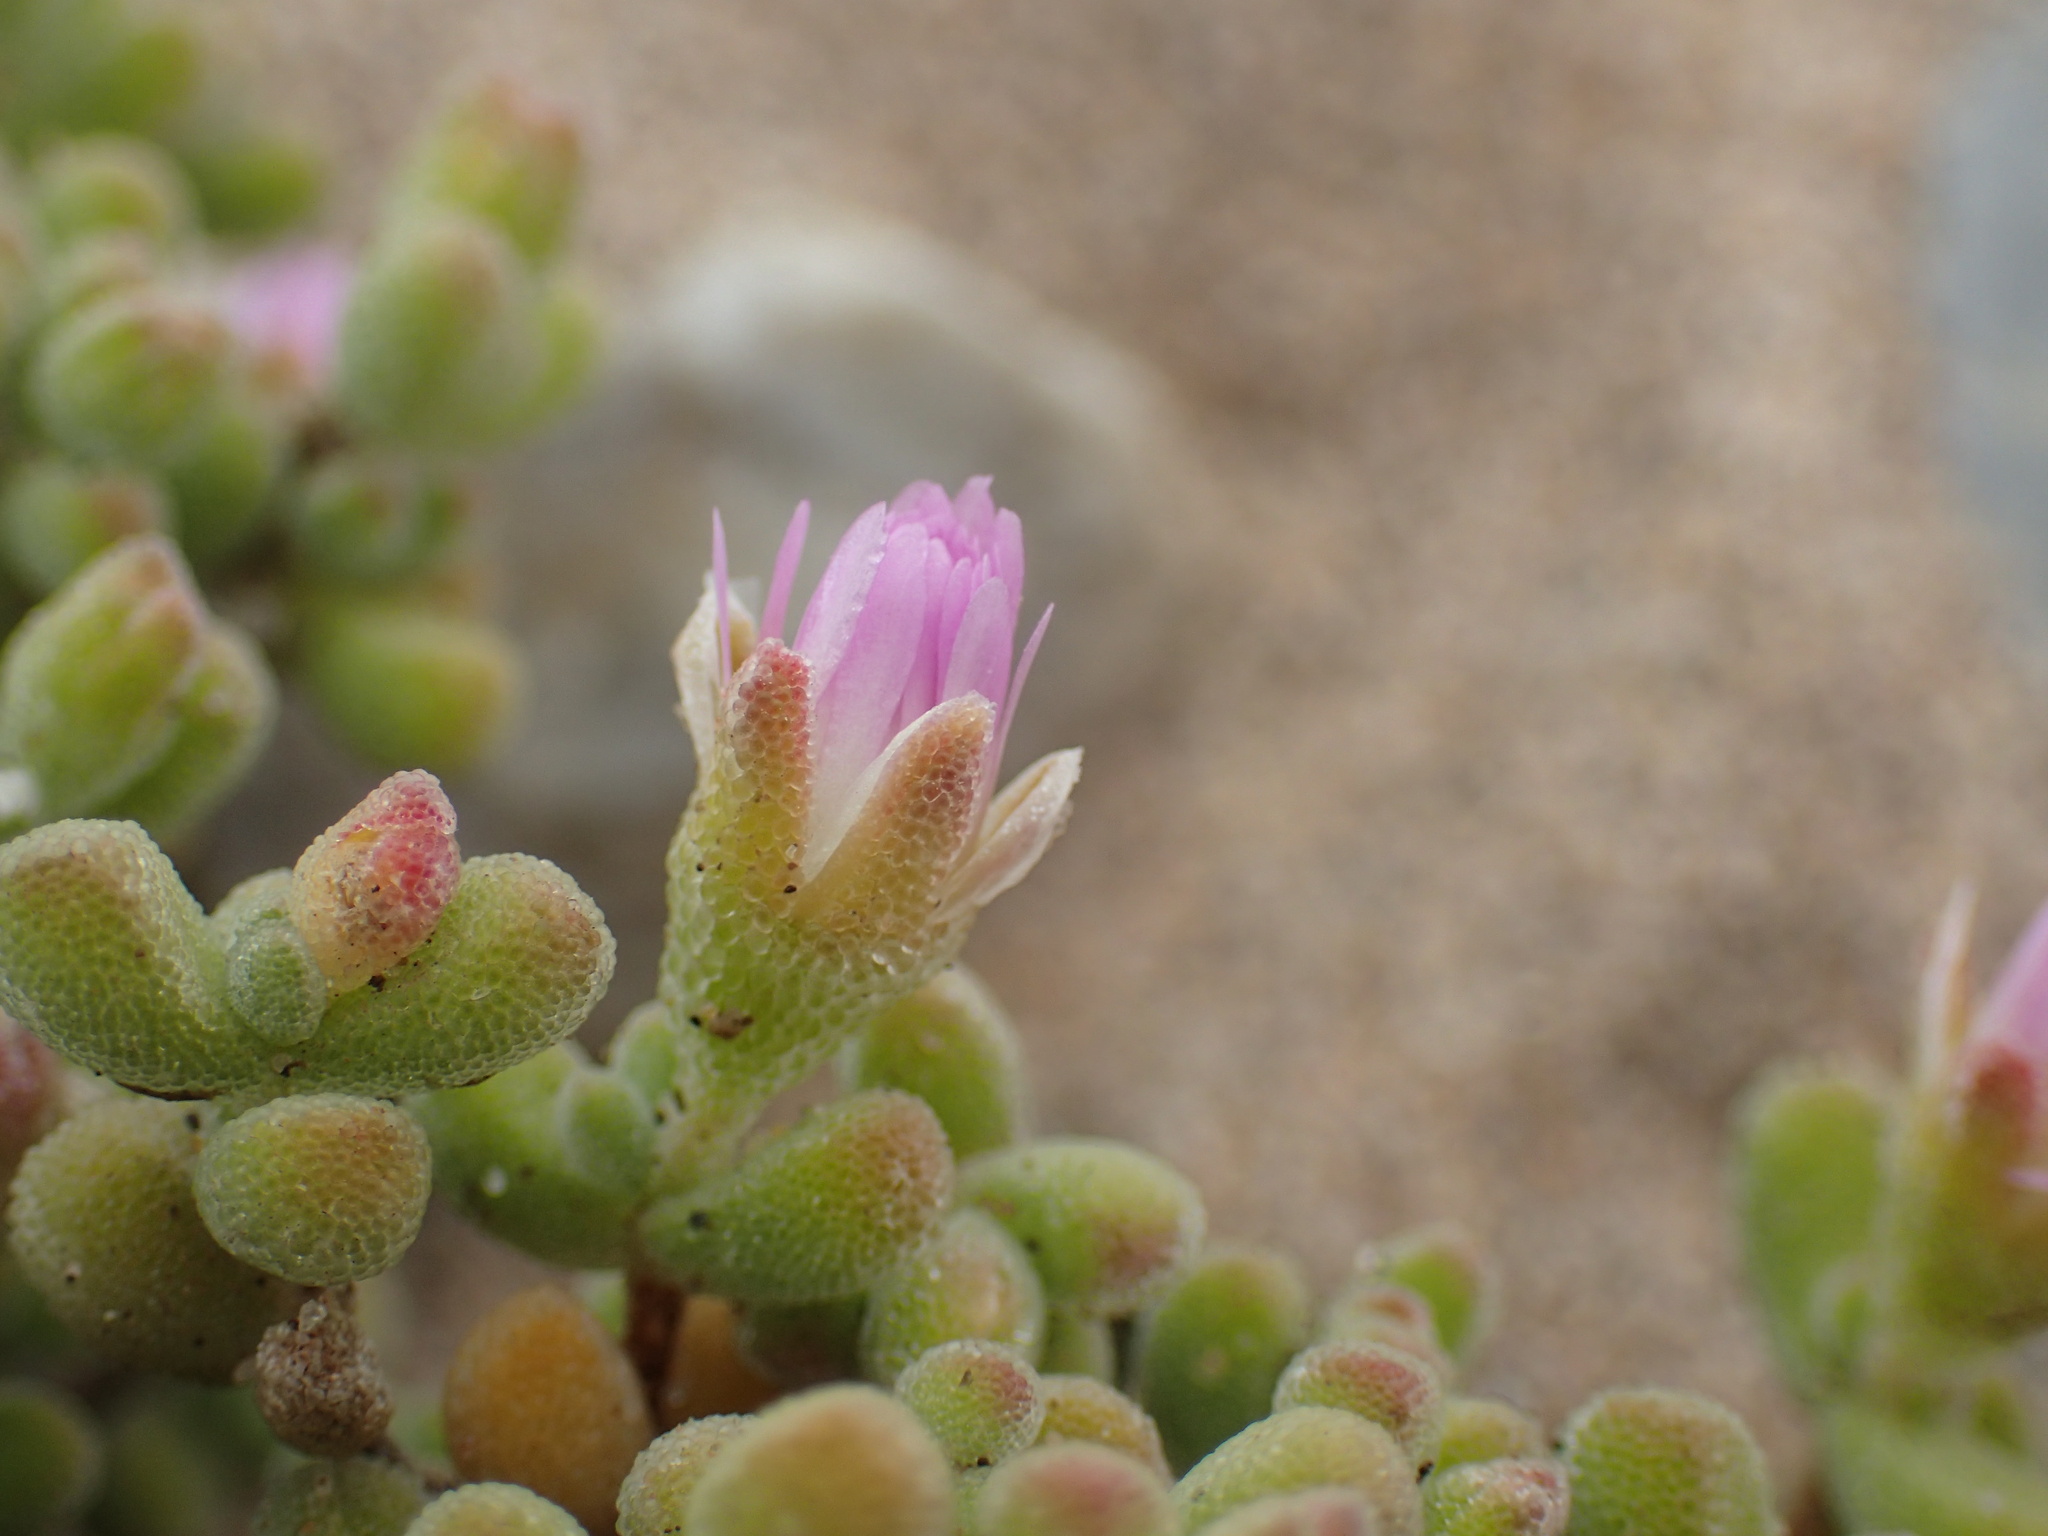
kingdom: Plantae
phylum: Tracheophyta
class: Magnoliopsida
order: Caryophyllales
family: Aizoaceae
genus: Drosanthemum
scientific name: Drosanthemum luederitzii
